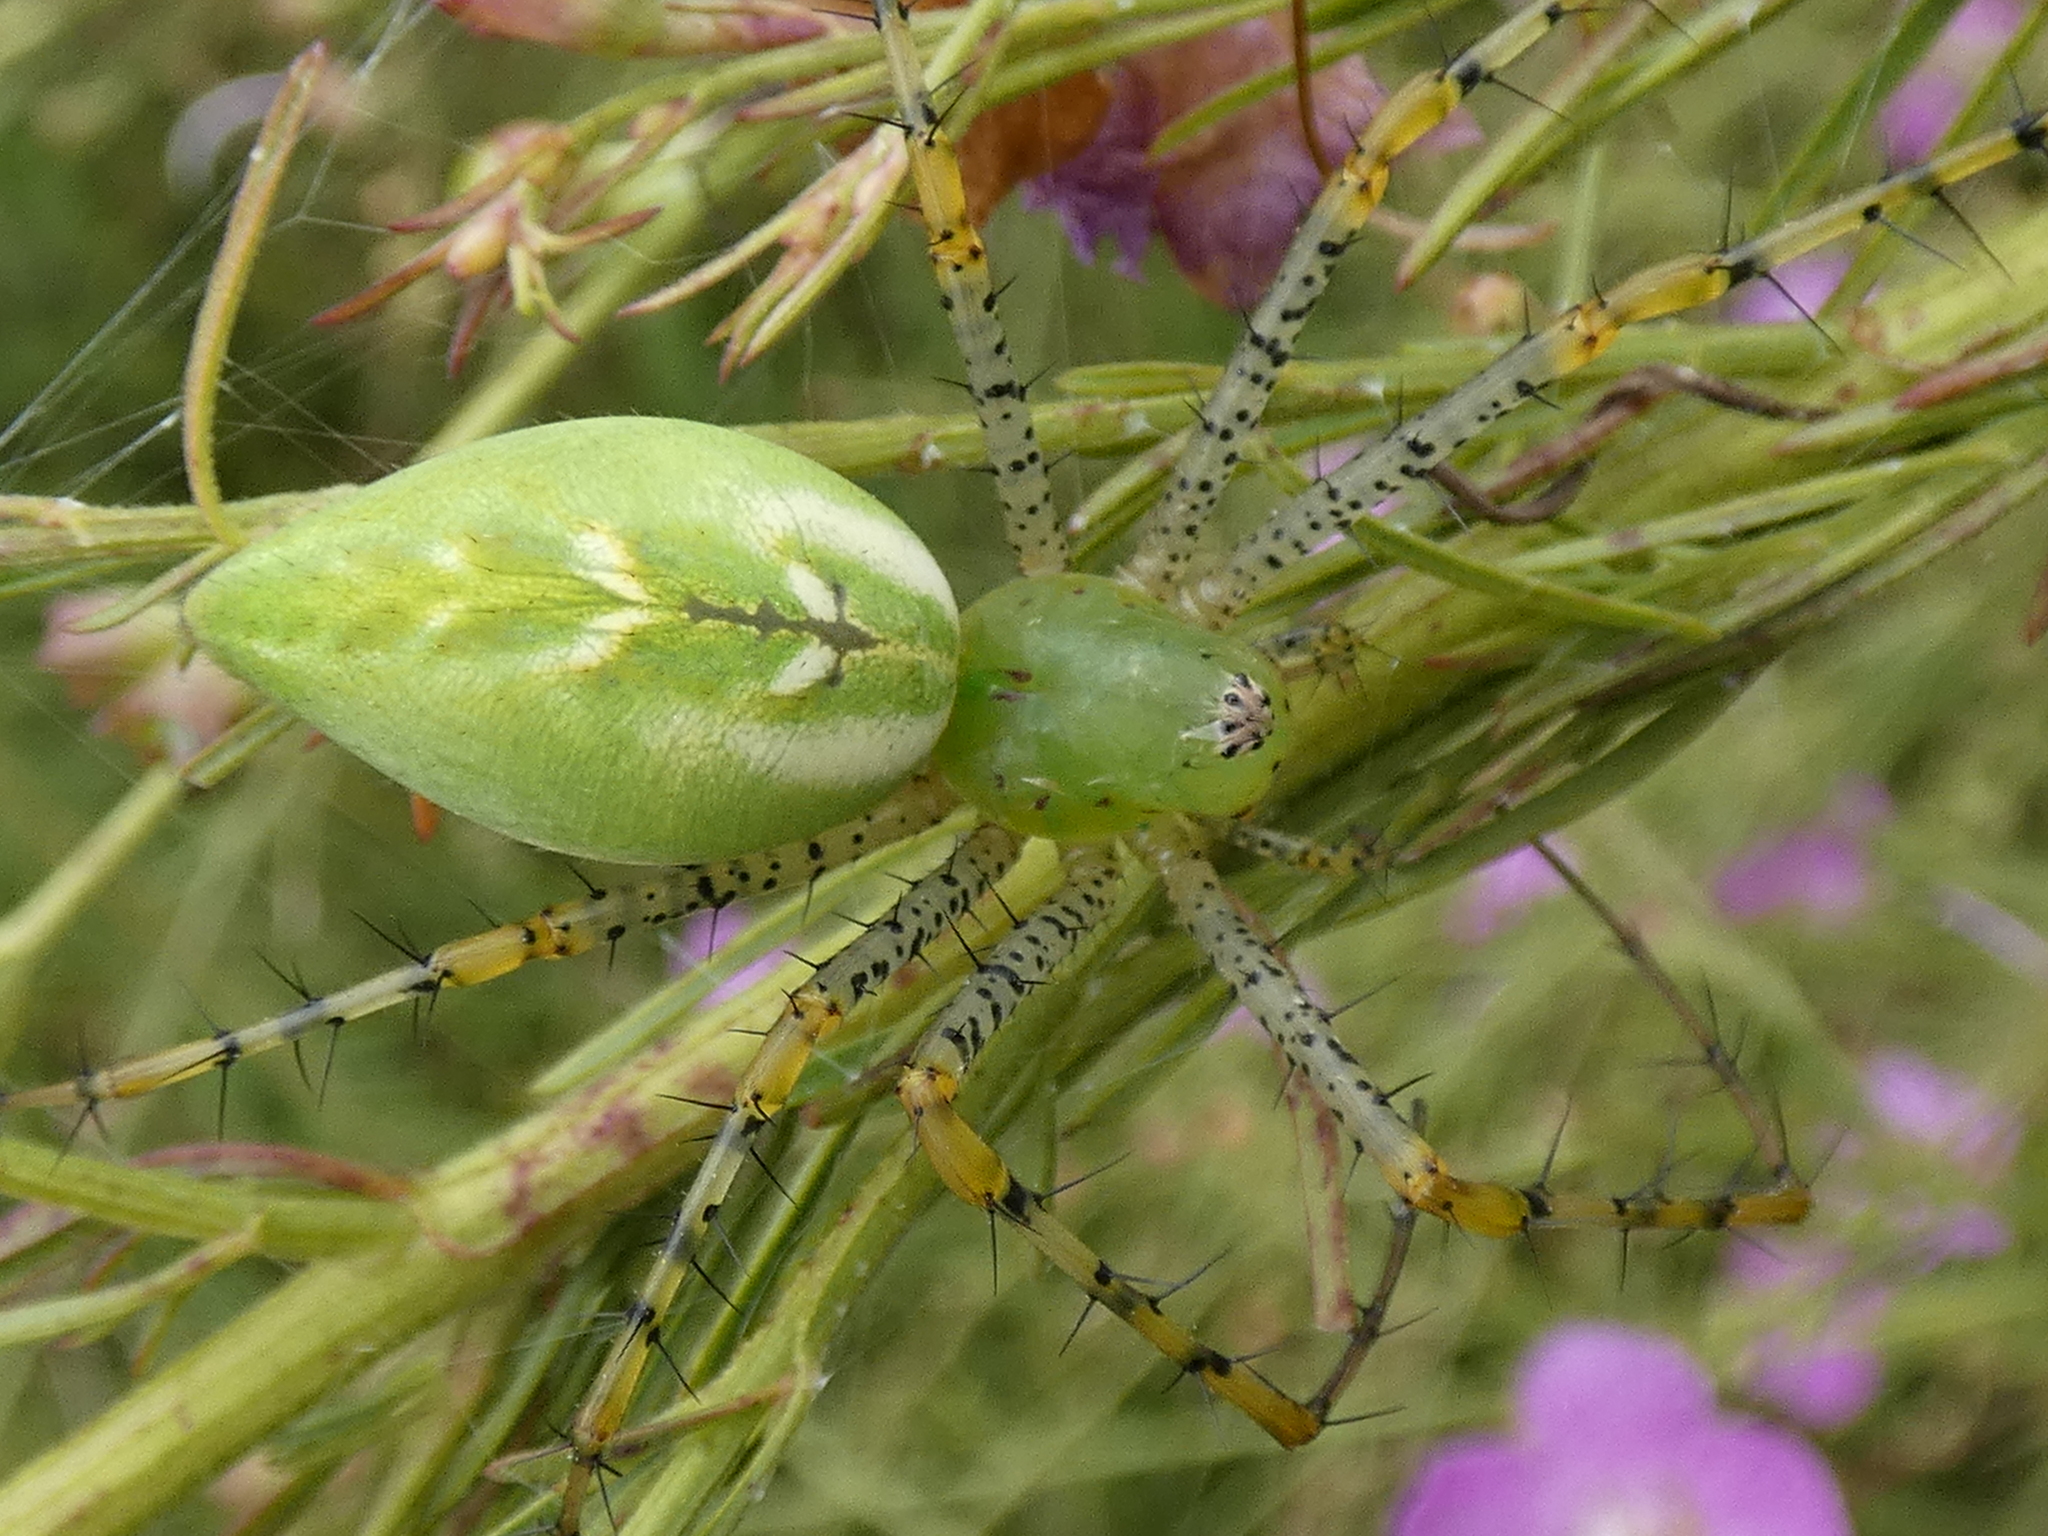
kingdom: Animalia
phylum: Arthropoda
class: Arachnida
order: Araneae
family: Oxyopidae
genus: Peucetia
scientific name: Peucetia viridans
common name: Lynx spiders
